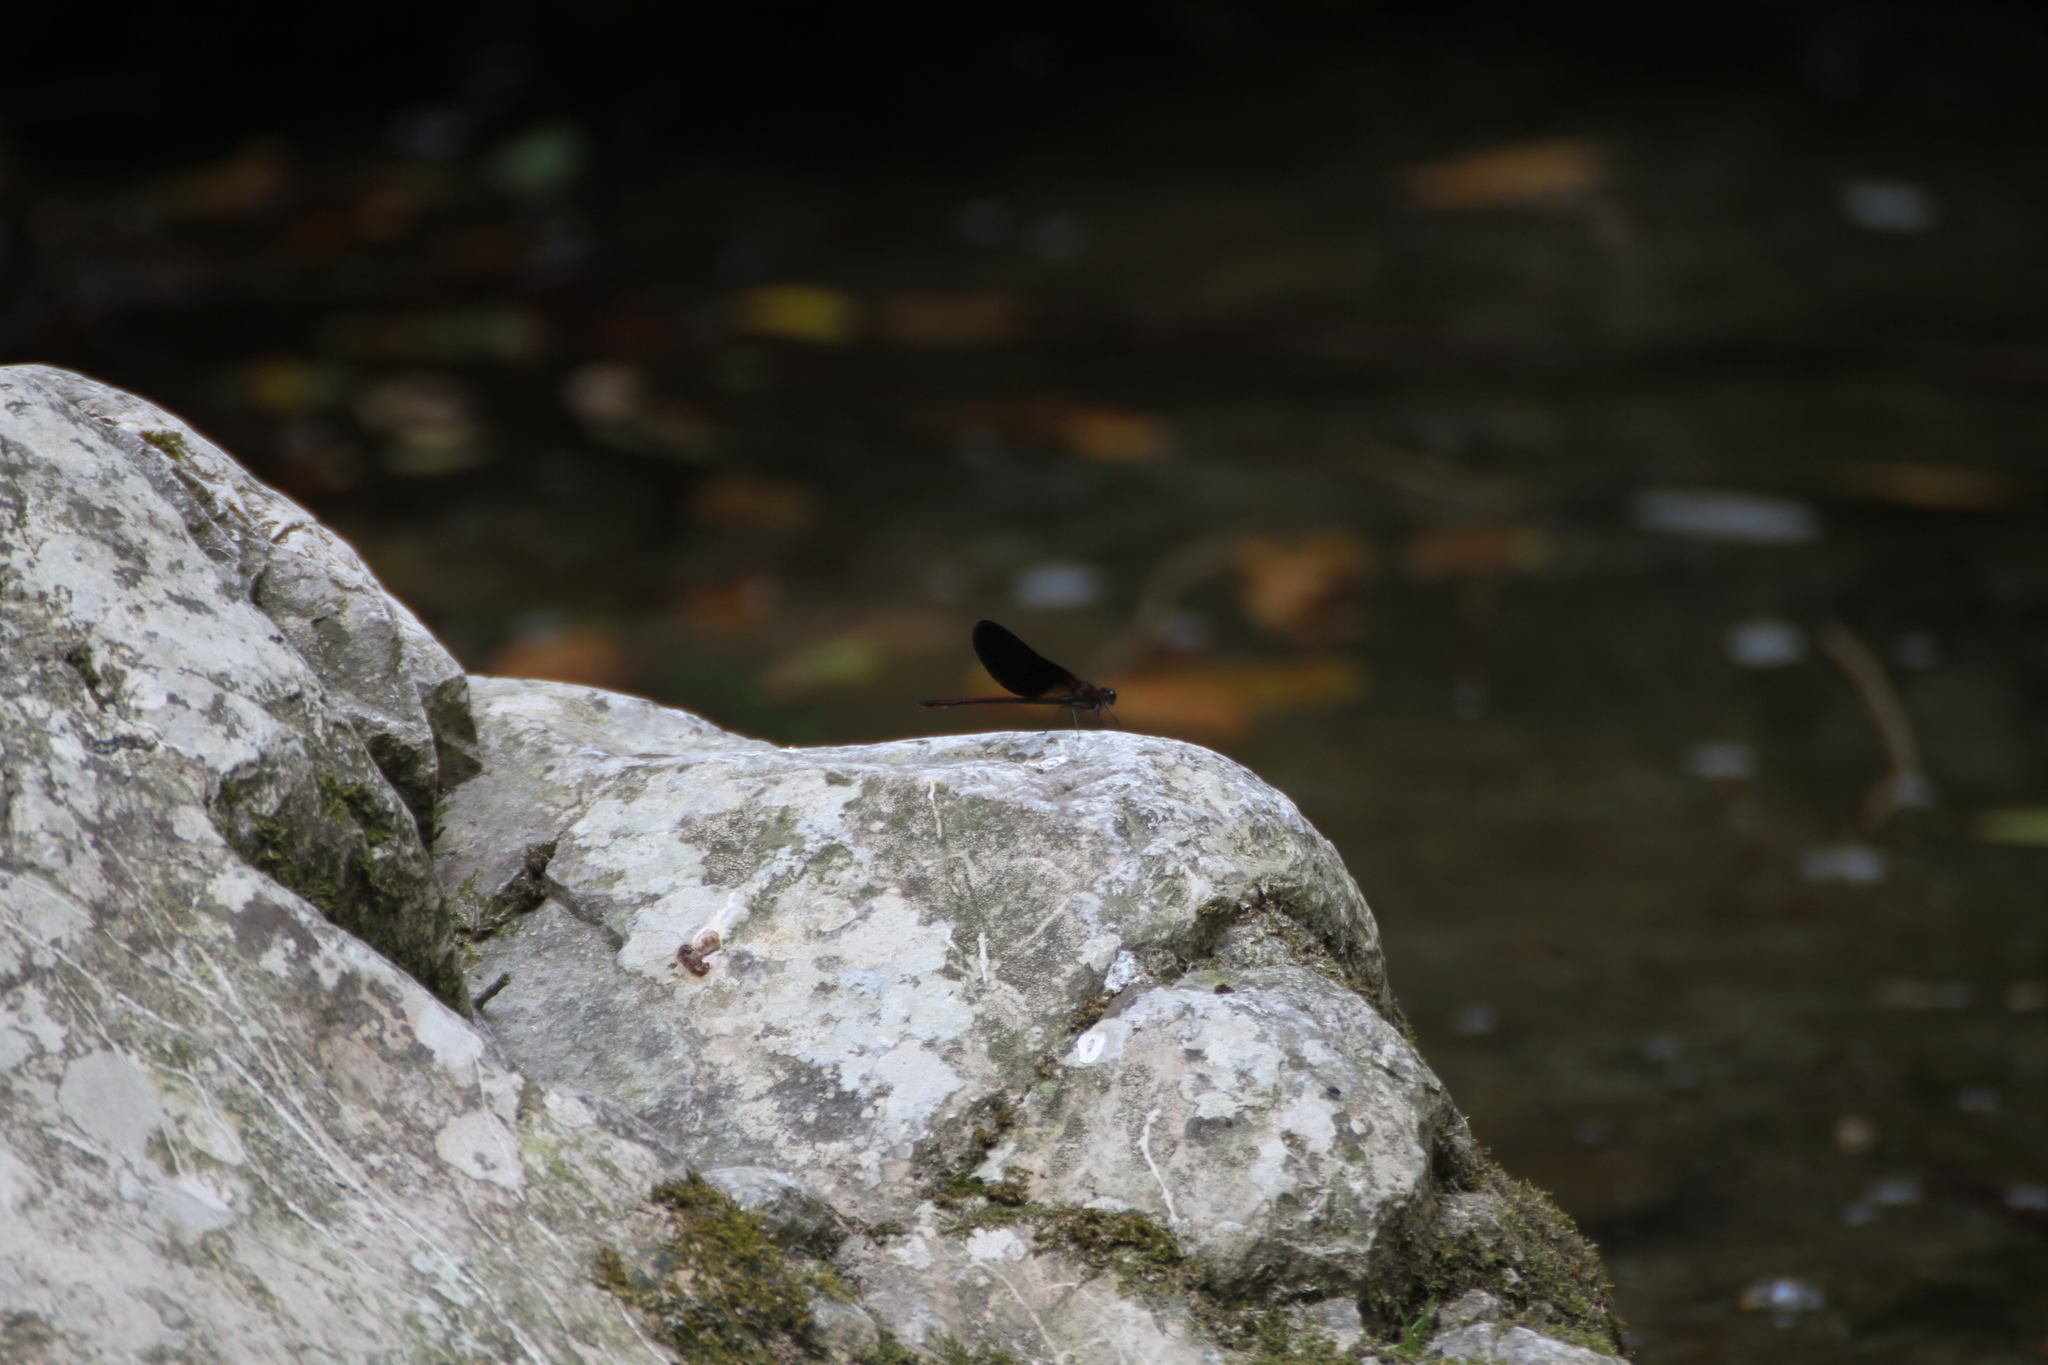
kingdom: Animalia
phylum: Arthropoda
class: Insecta
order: Odonata
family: Calopterygidae
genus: Calopteryx
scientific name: Calopteryx haemorrhoidalis
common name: Copper demoiselle
